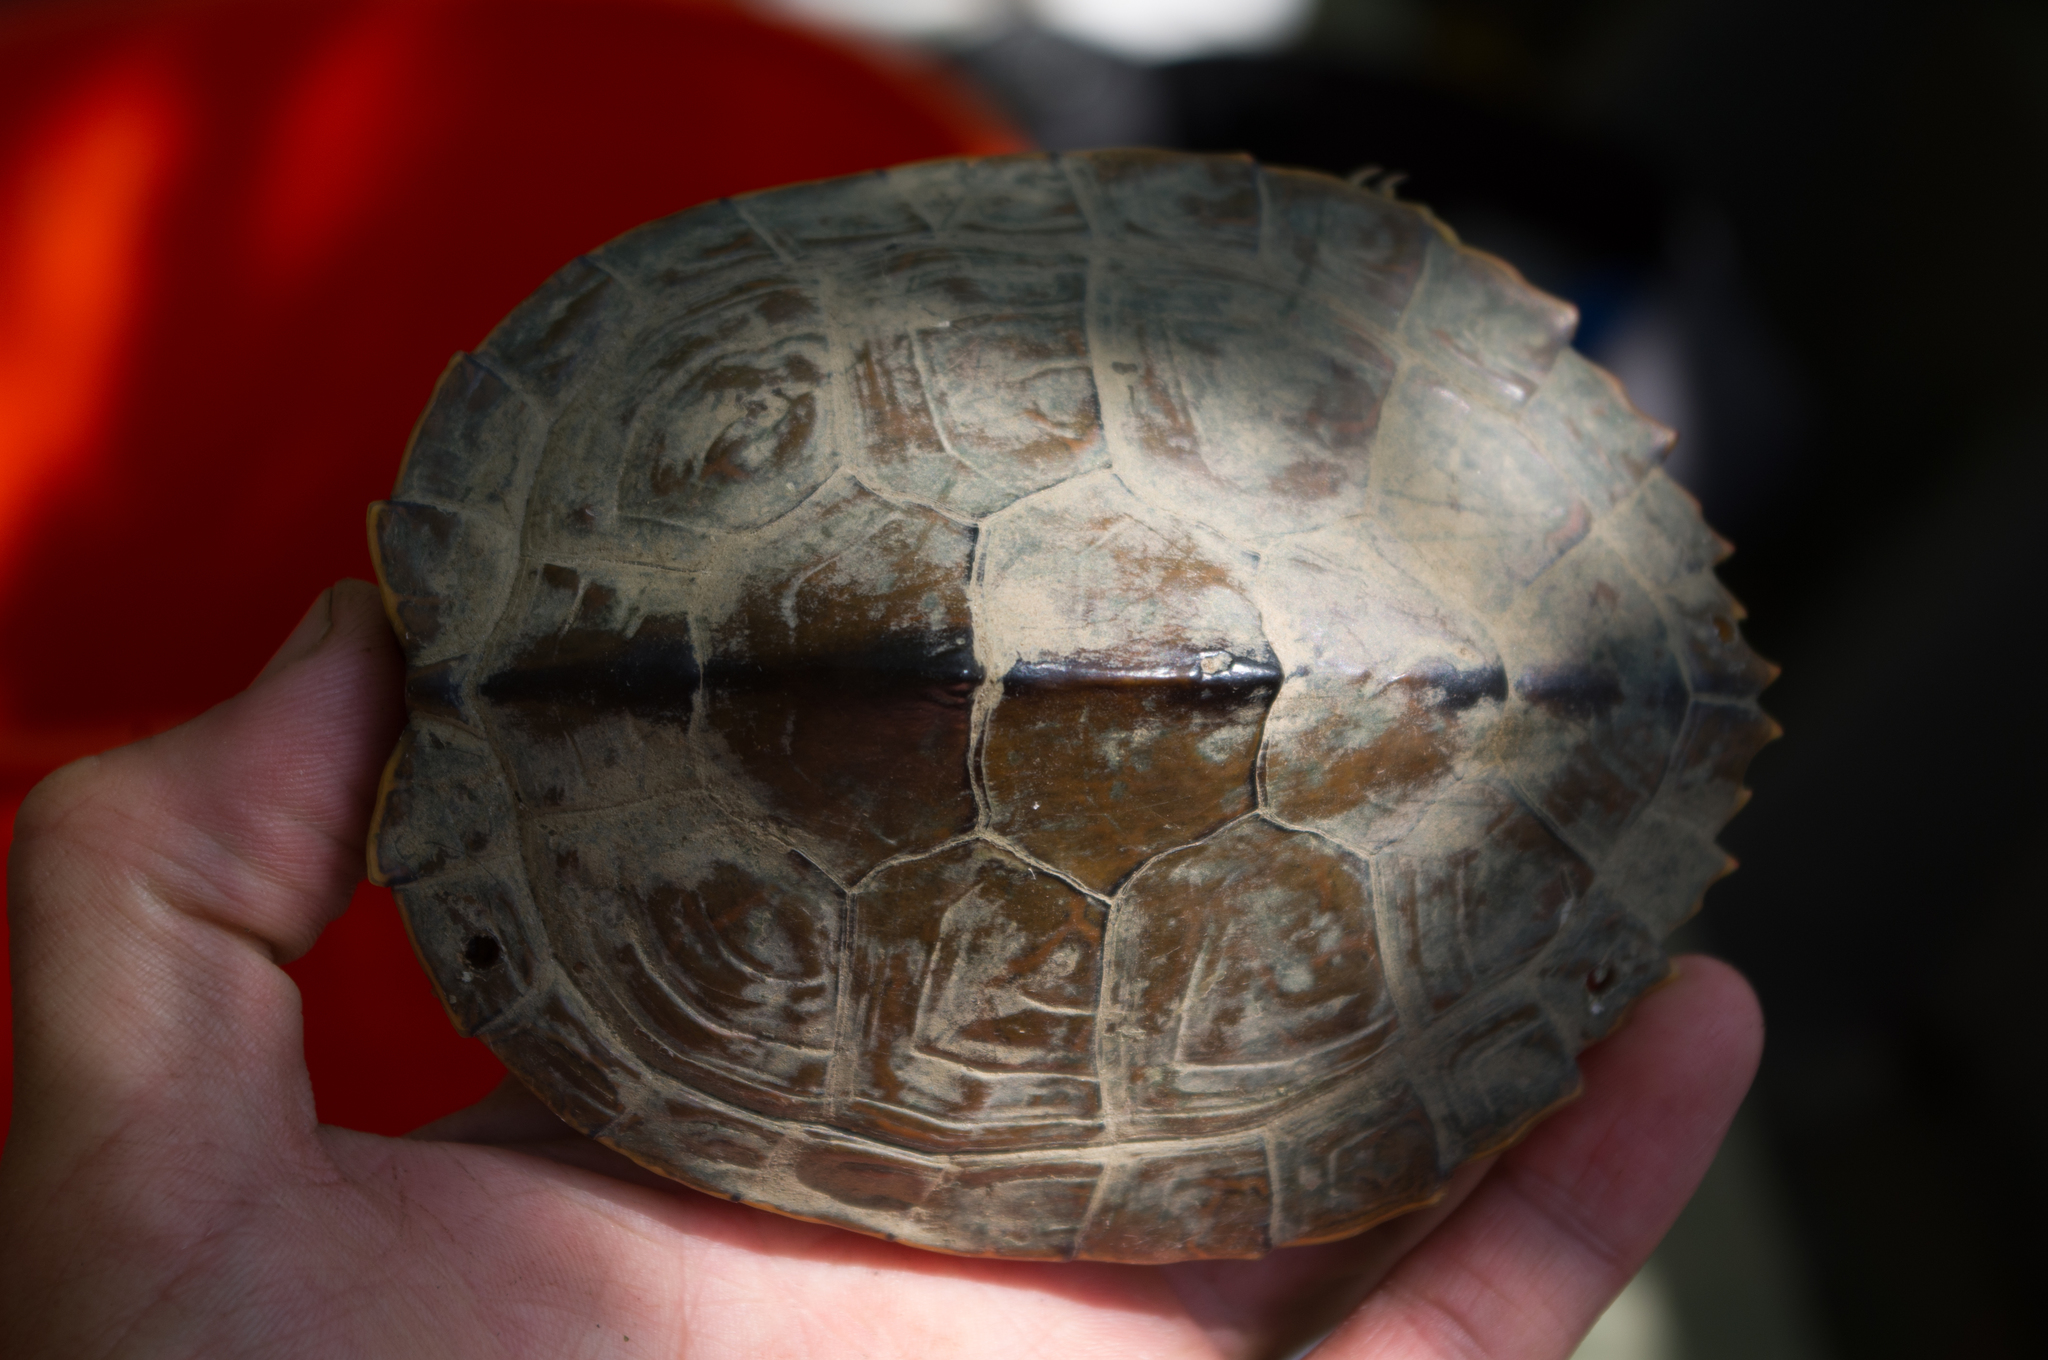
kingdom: Animalia
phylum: Chordata
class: Testudines
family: Emydidae
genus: Graptemys
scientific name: Graptemys sabinensis
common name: Sabine map turtle
